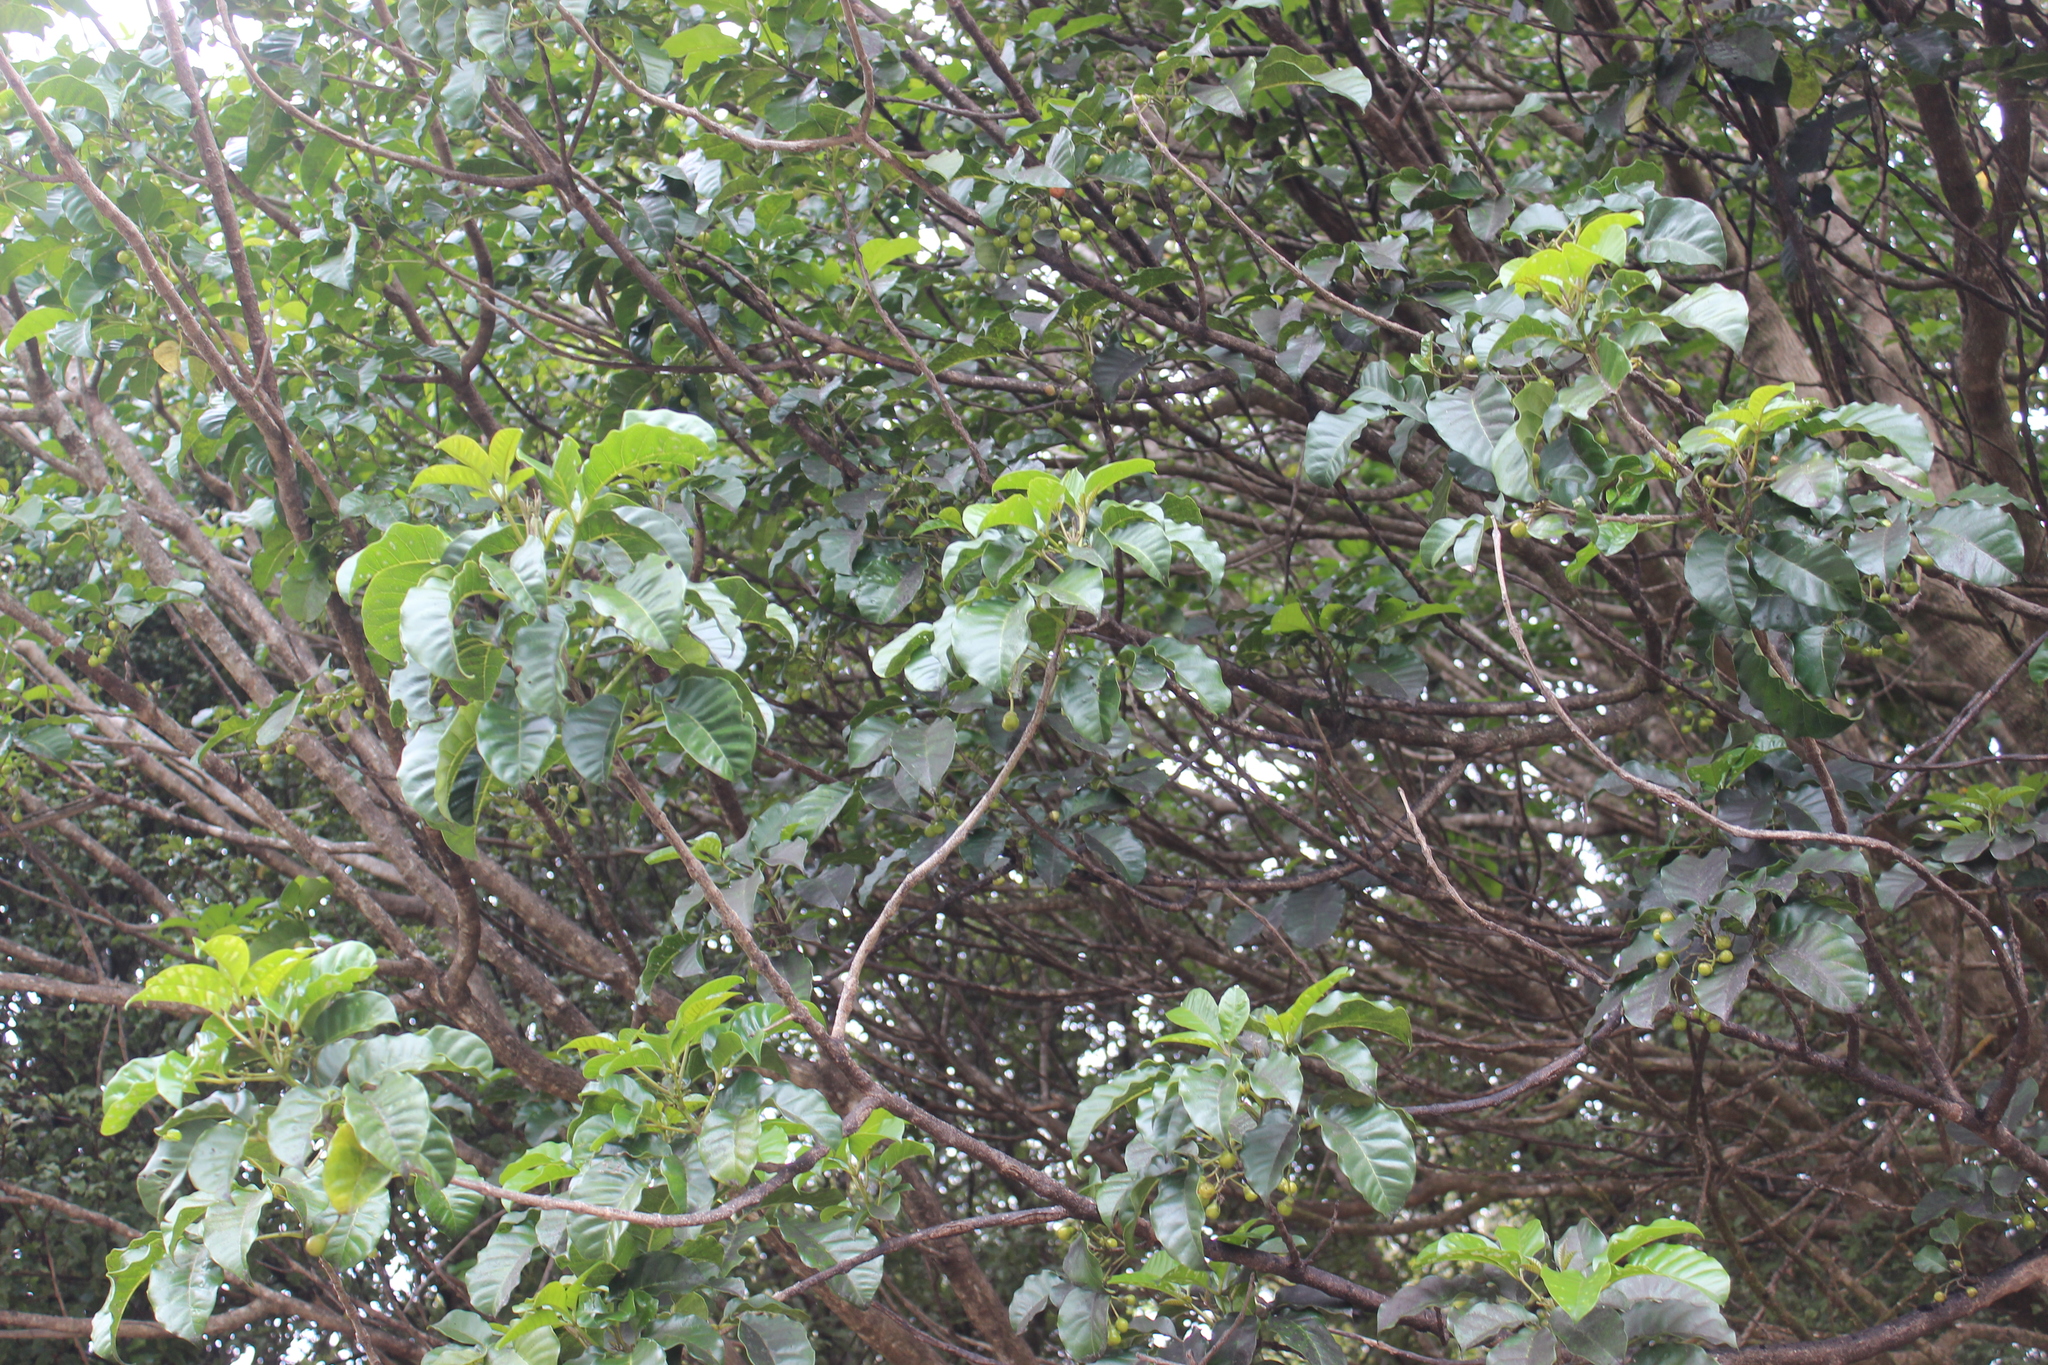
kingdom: Plantae
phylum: Tracheophyta
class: Magnoliopsida
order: Lamiales
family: Lamiaceae
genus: Vitex
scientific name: Vitex lucens
